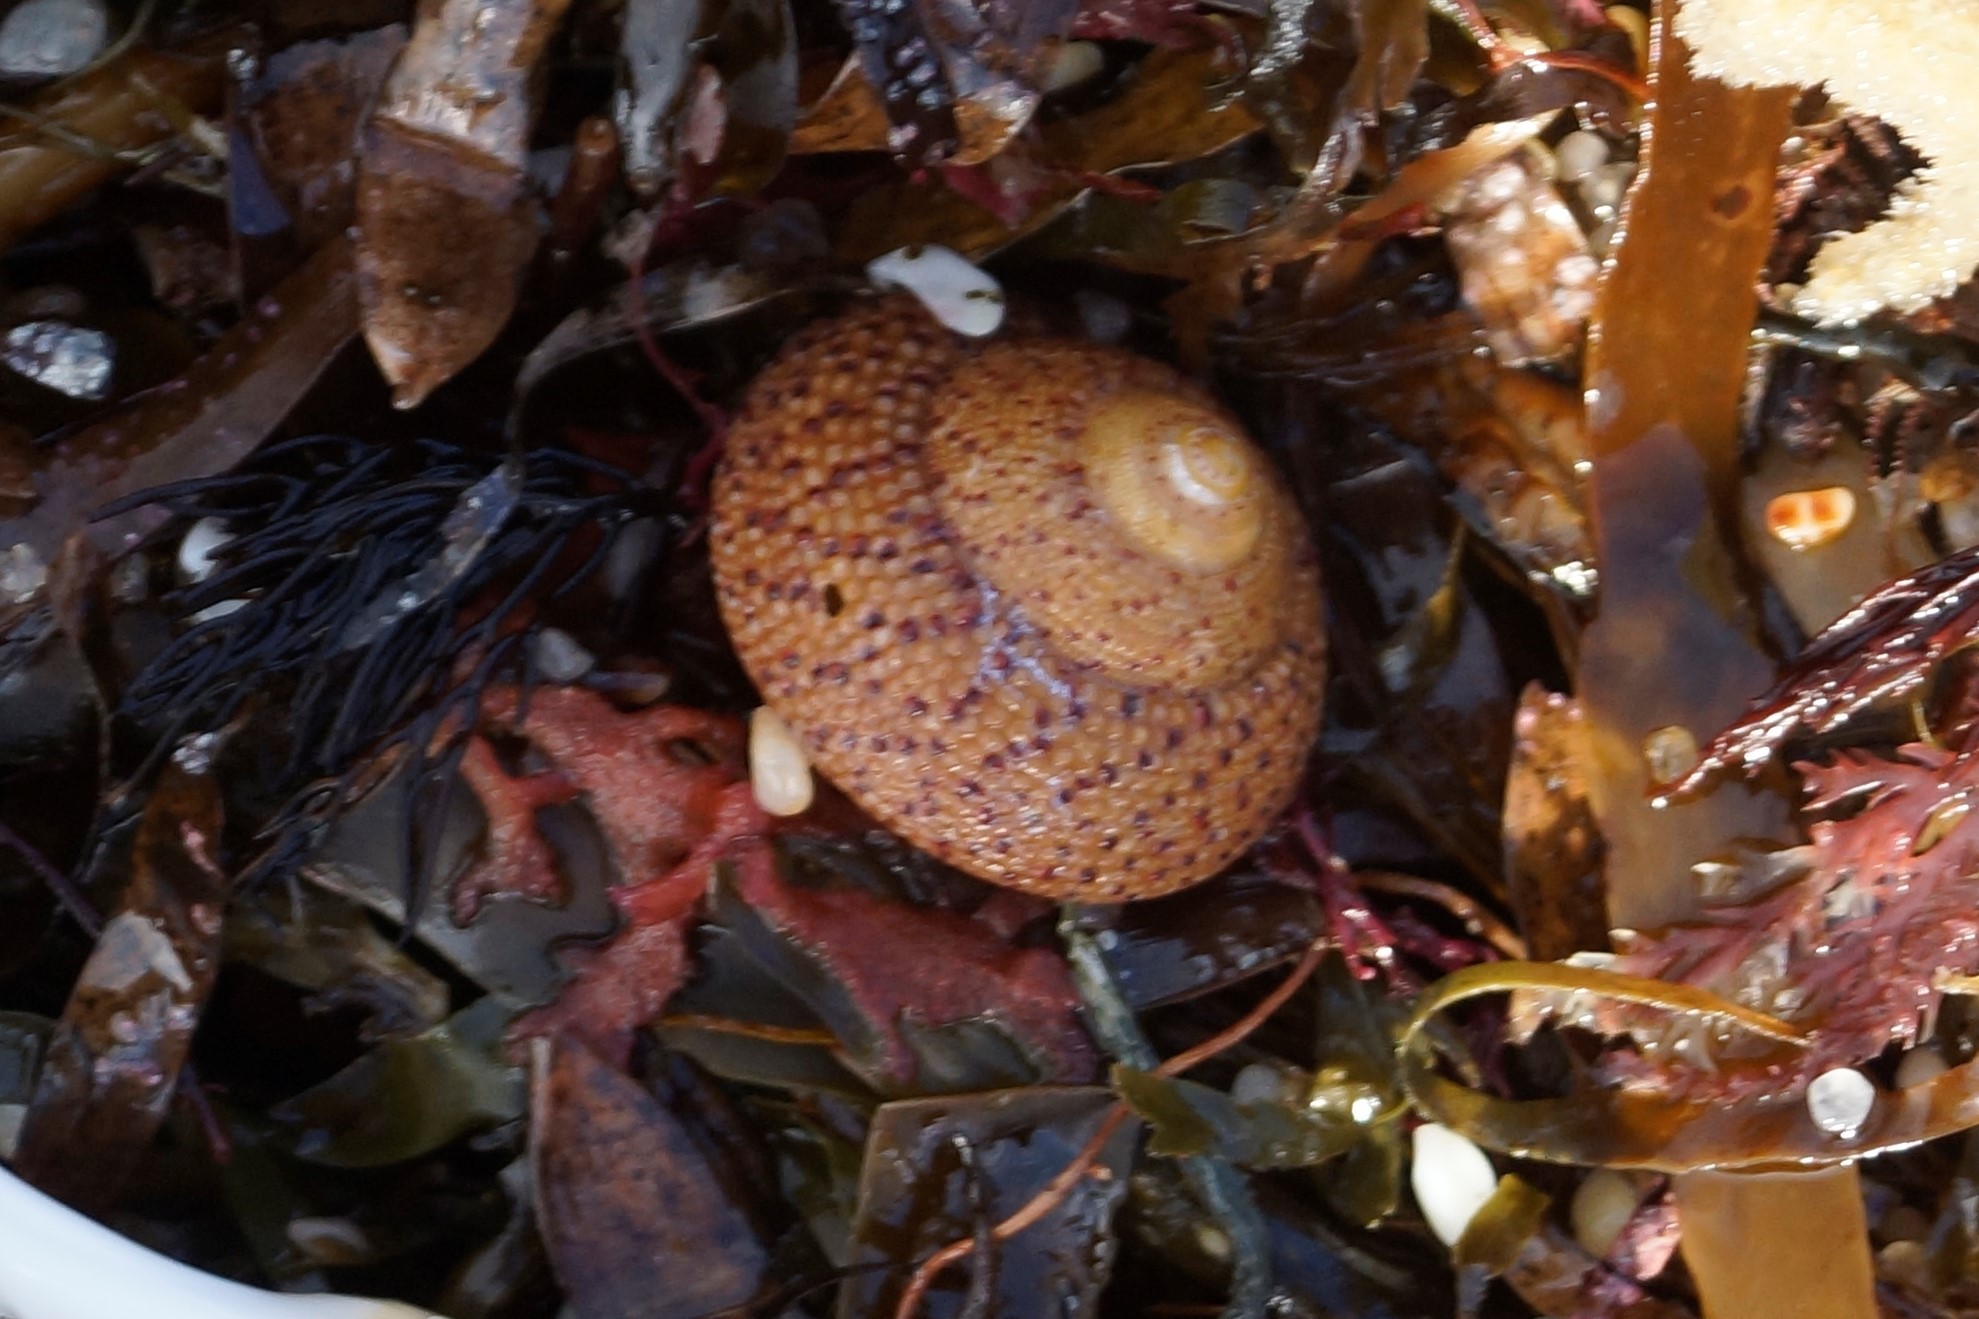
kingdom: Animalia
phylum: Mollusca
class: Gastropoda
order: Trochida
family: Trochidae
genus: Clanculus
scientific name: Clanculus undatus
